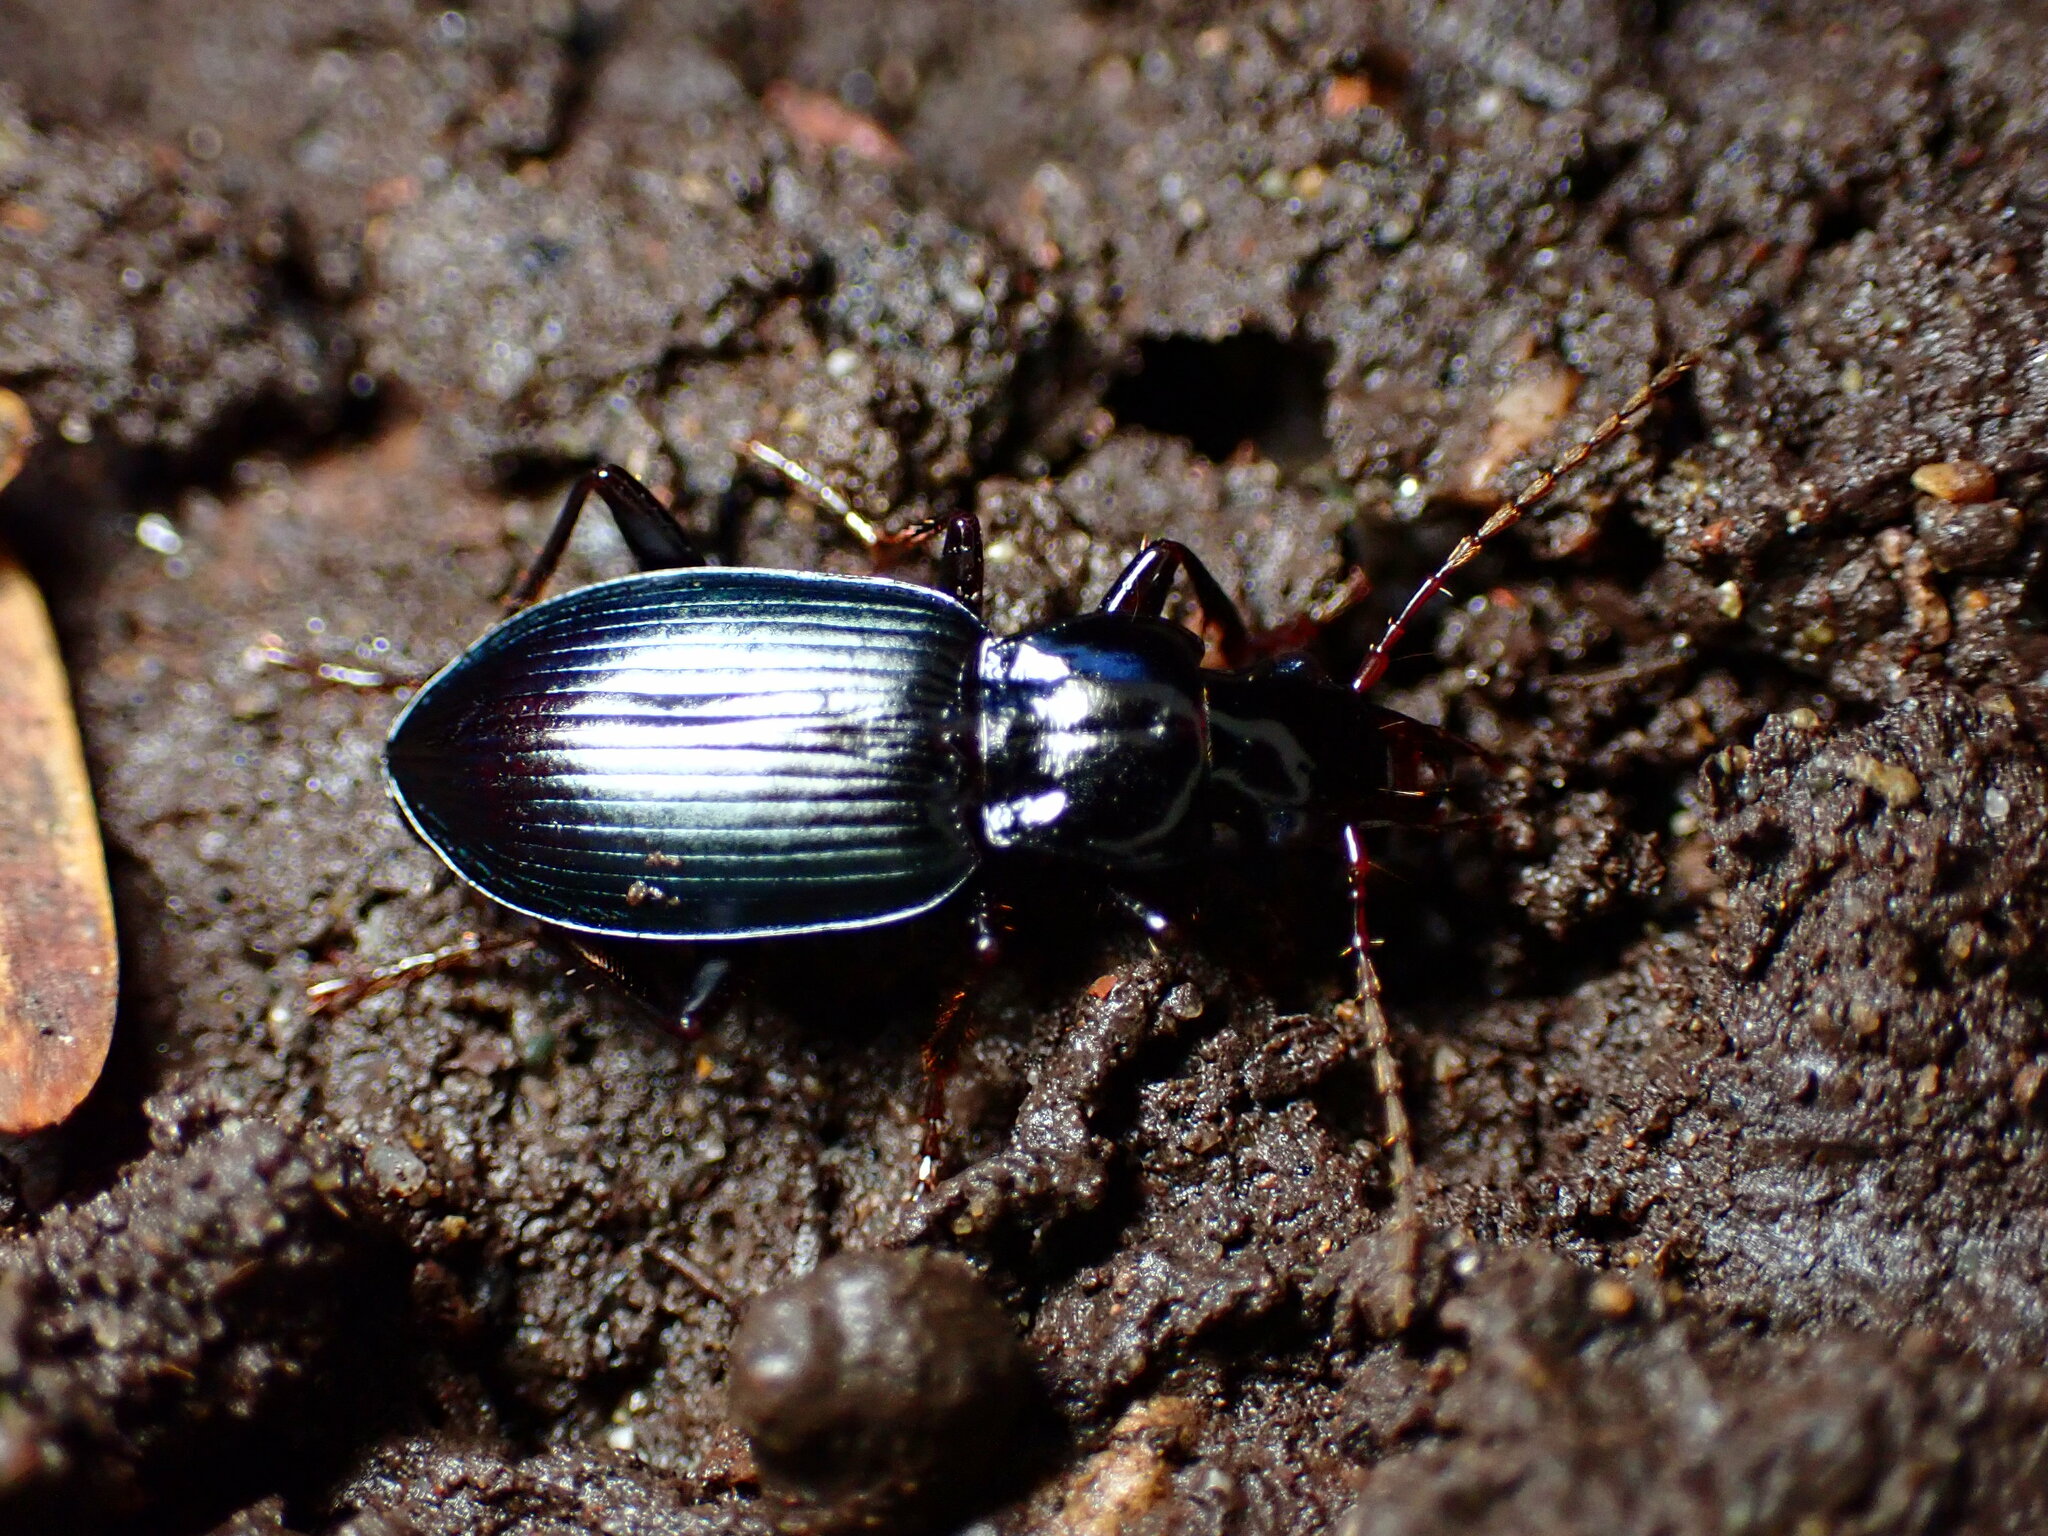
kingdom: Animalia
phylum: Arthropoda
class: Insecta
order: Coleoptera
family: Carabidae
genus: Laemostenus
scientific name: Laemostenus complanatus
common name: Cosmopolitan ground beetle
